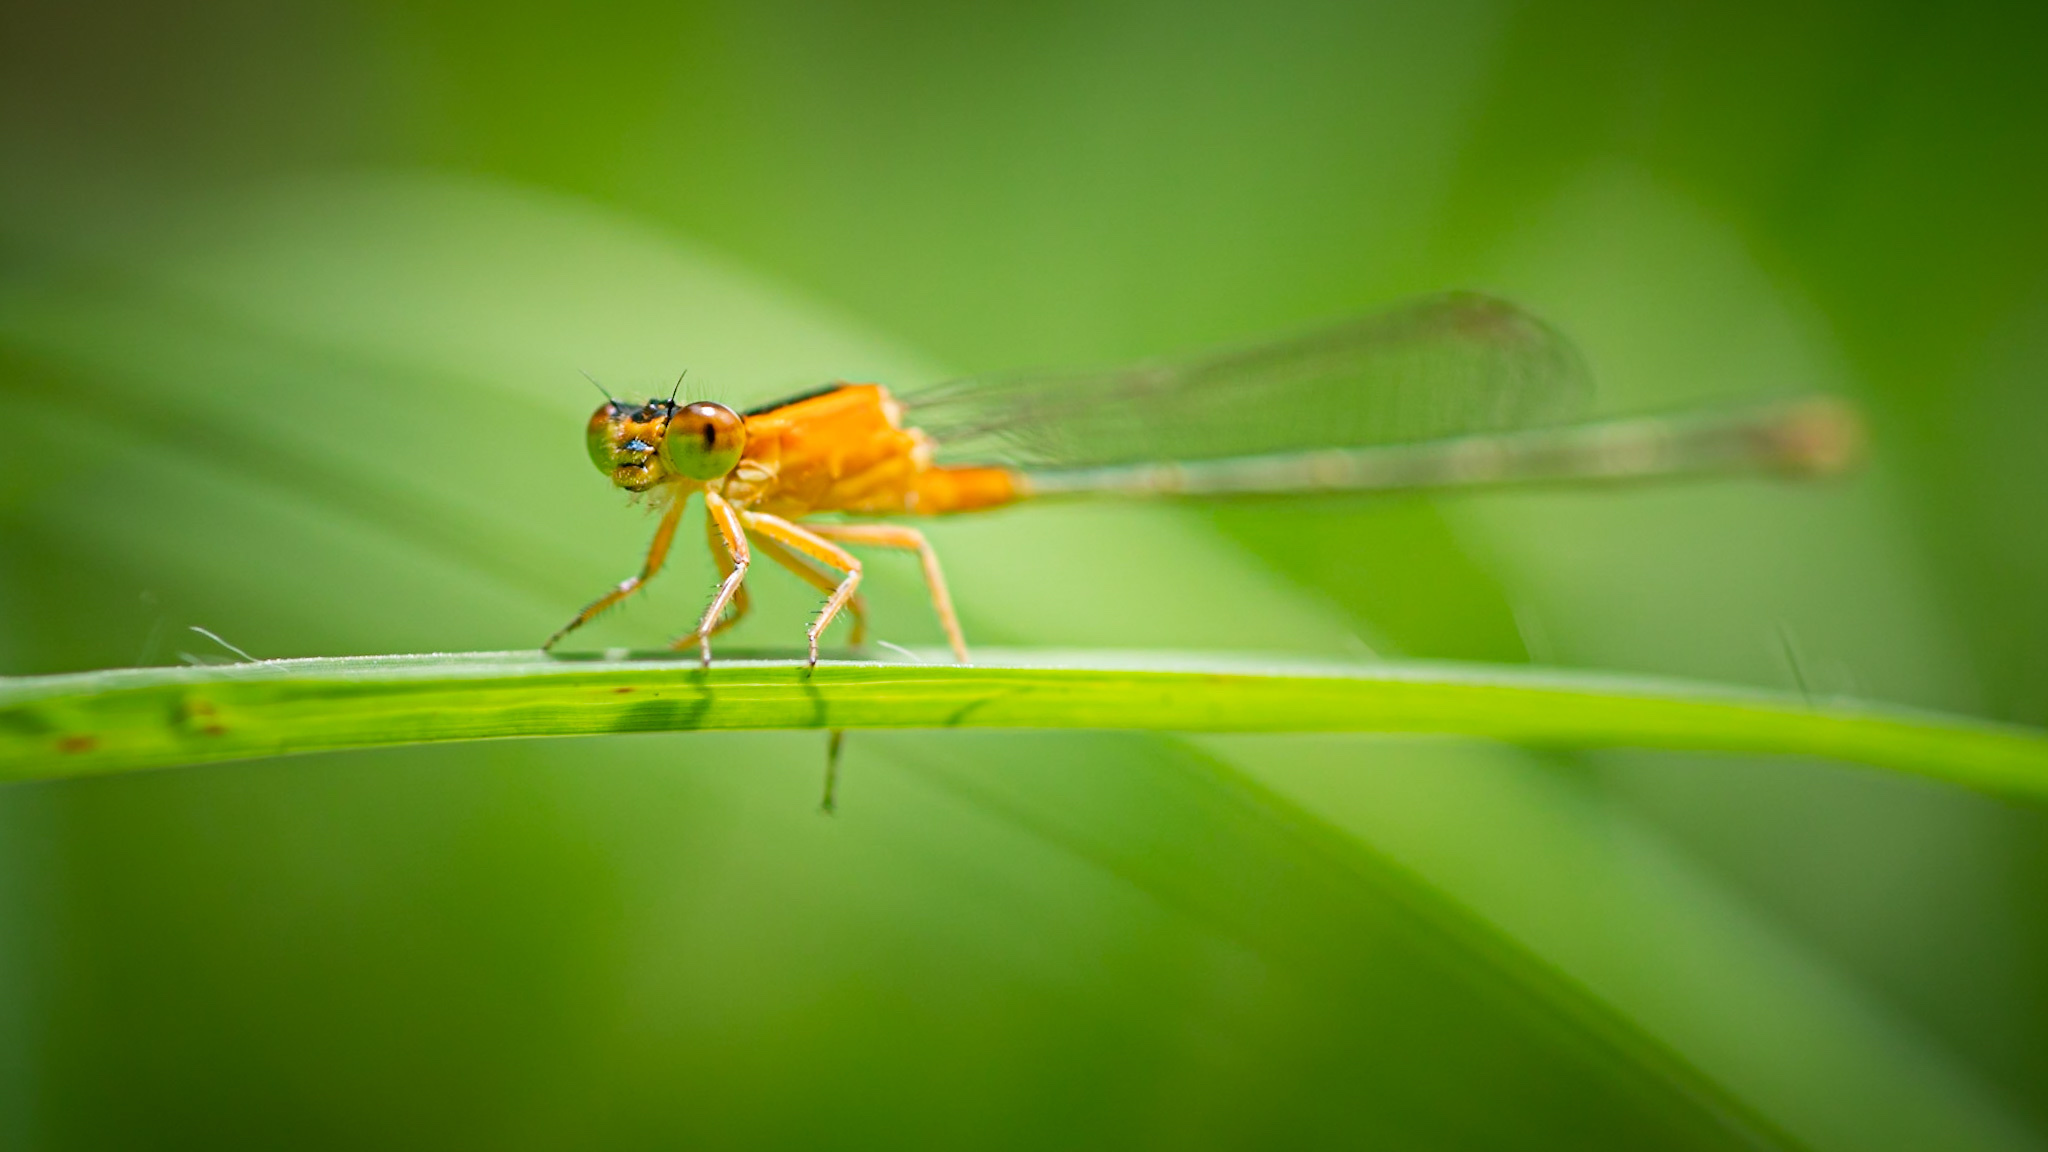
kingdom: Animalia
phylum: Arthropoda
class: Insecta
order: Odonata
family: Coenagrionidae
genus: Ischnura
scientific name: Ischnura
